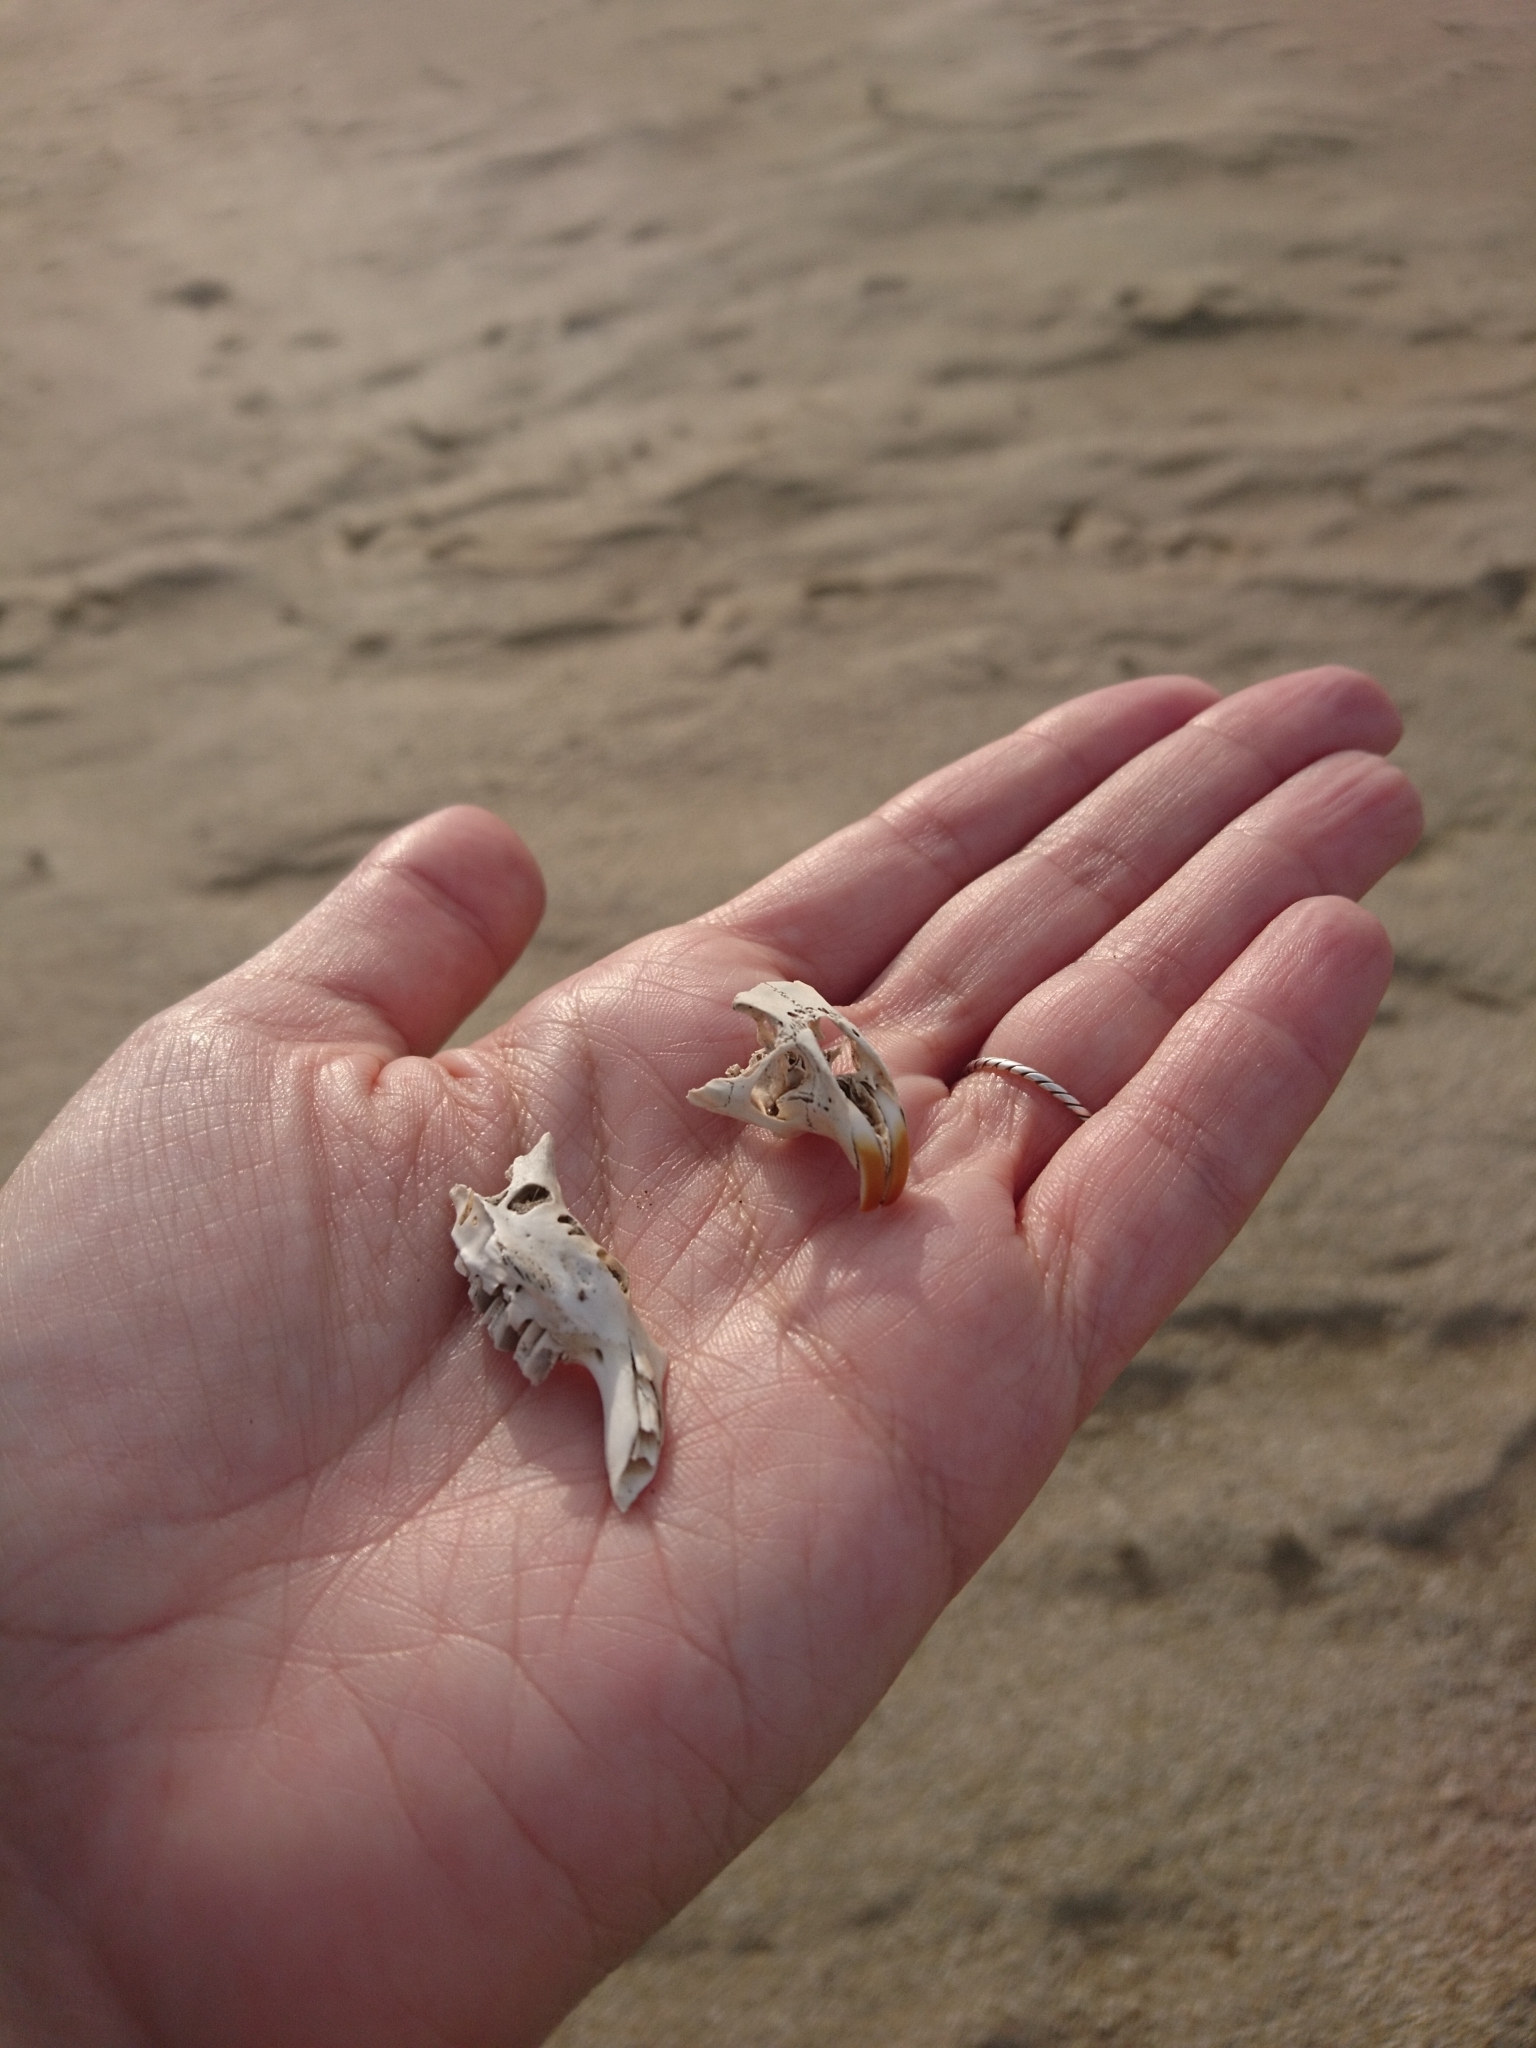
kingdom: Animalia
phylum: Chordata
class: Mammalia
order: Rodentia
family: Ctenomyidae
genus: Ctenomys
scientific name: Ctenomys talarum
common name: Talas tuco-tuco
